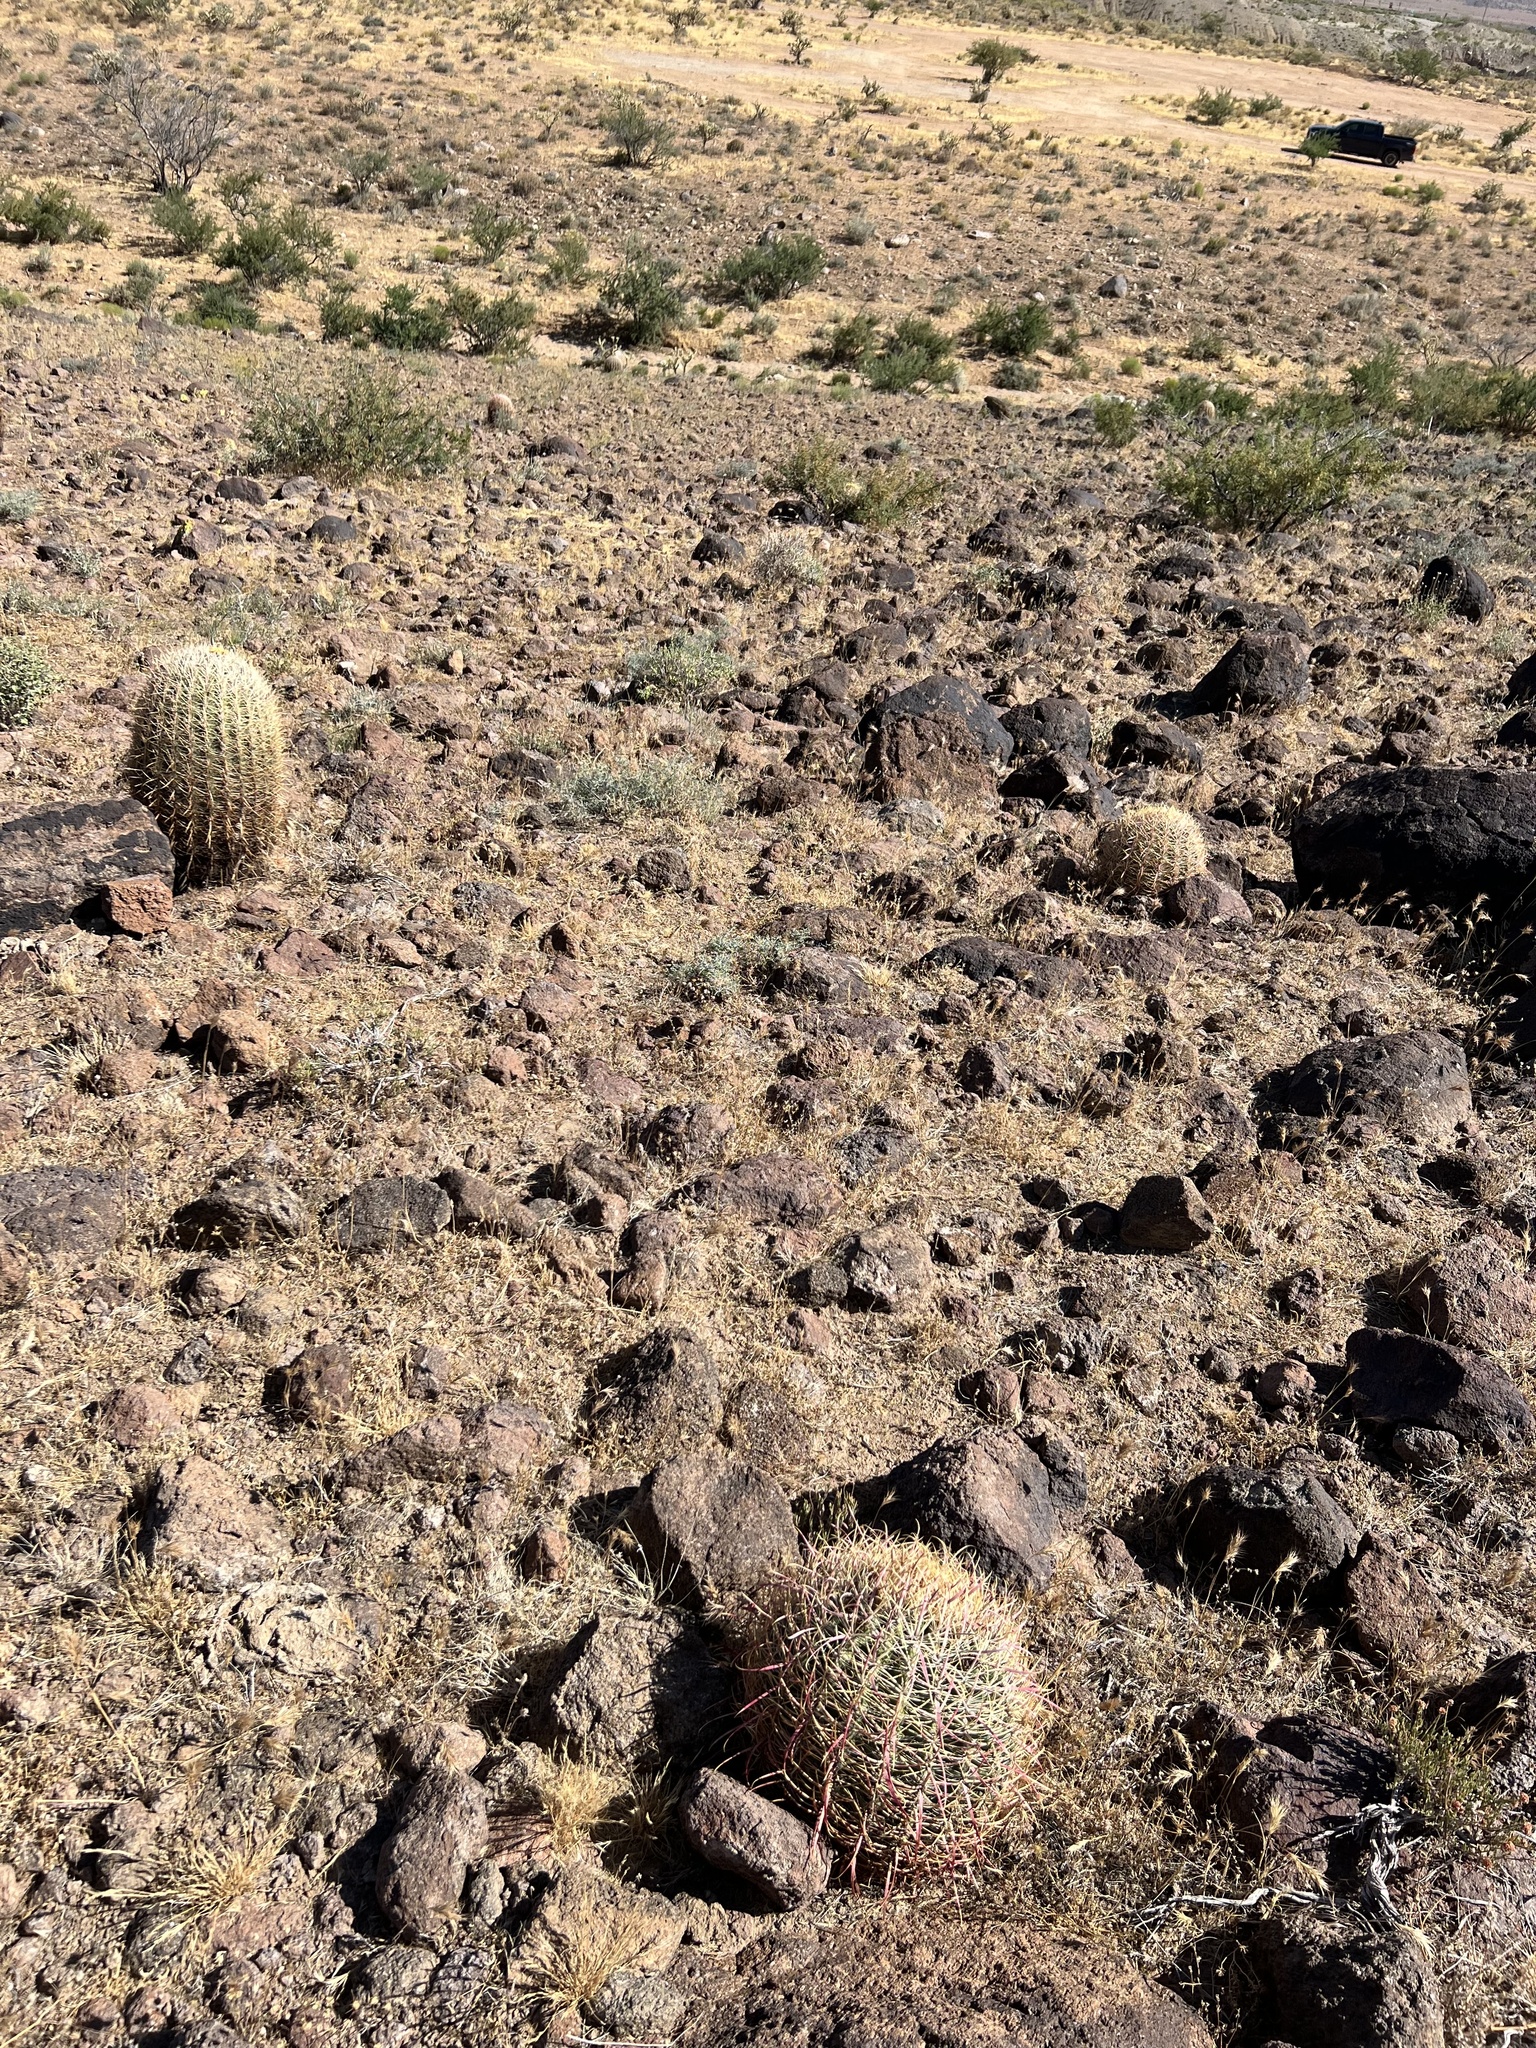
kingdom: Plantae
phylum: Tracheophyta
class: Magnoliopsida
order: Caryophyllales
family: Cactaceae
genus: Ferocactus
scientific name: Ferocactus cylindraceus
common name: California barrel cactus
